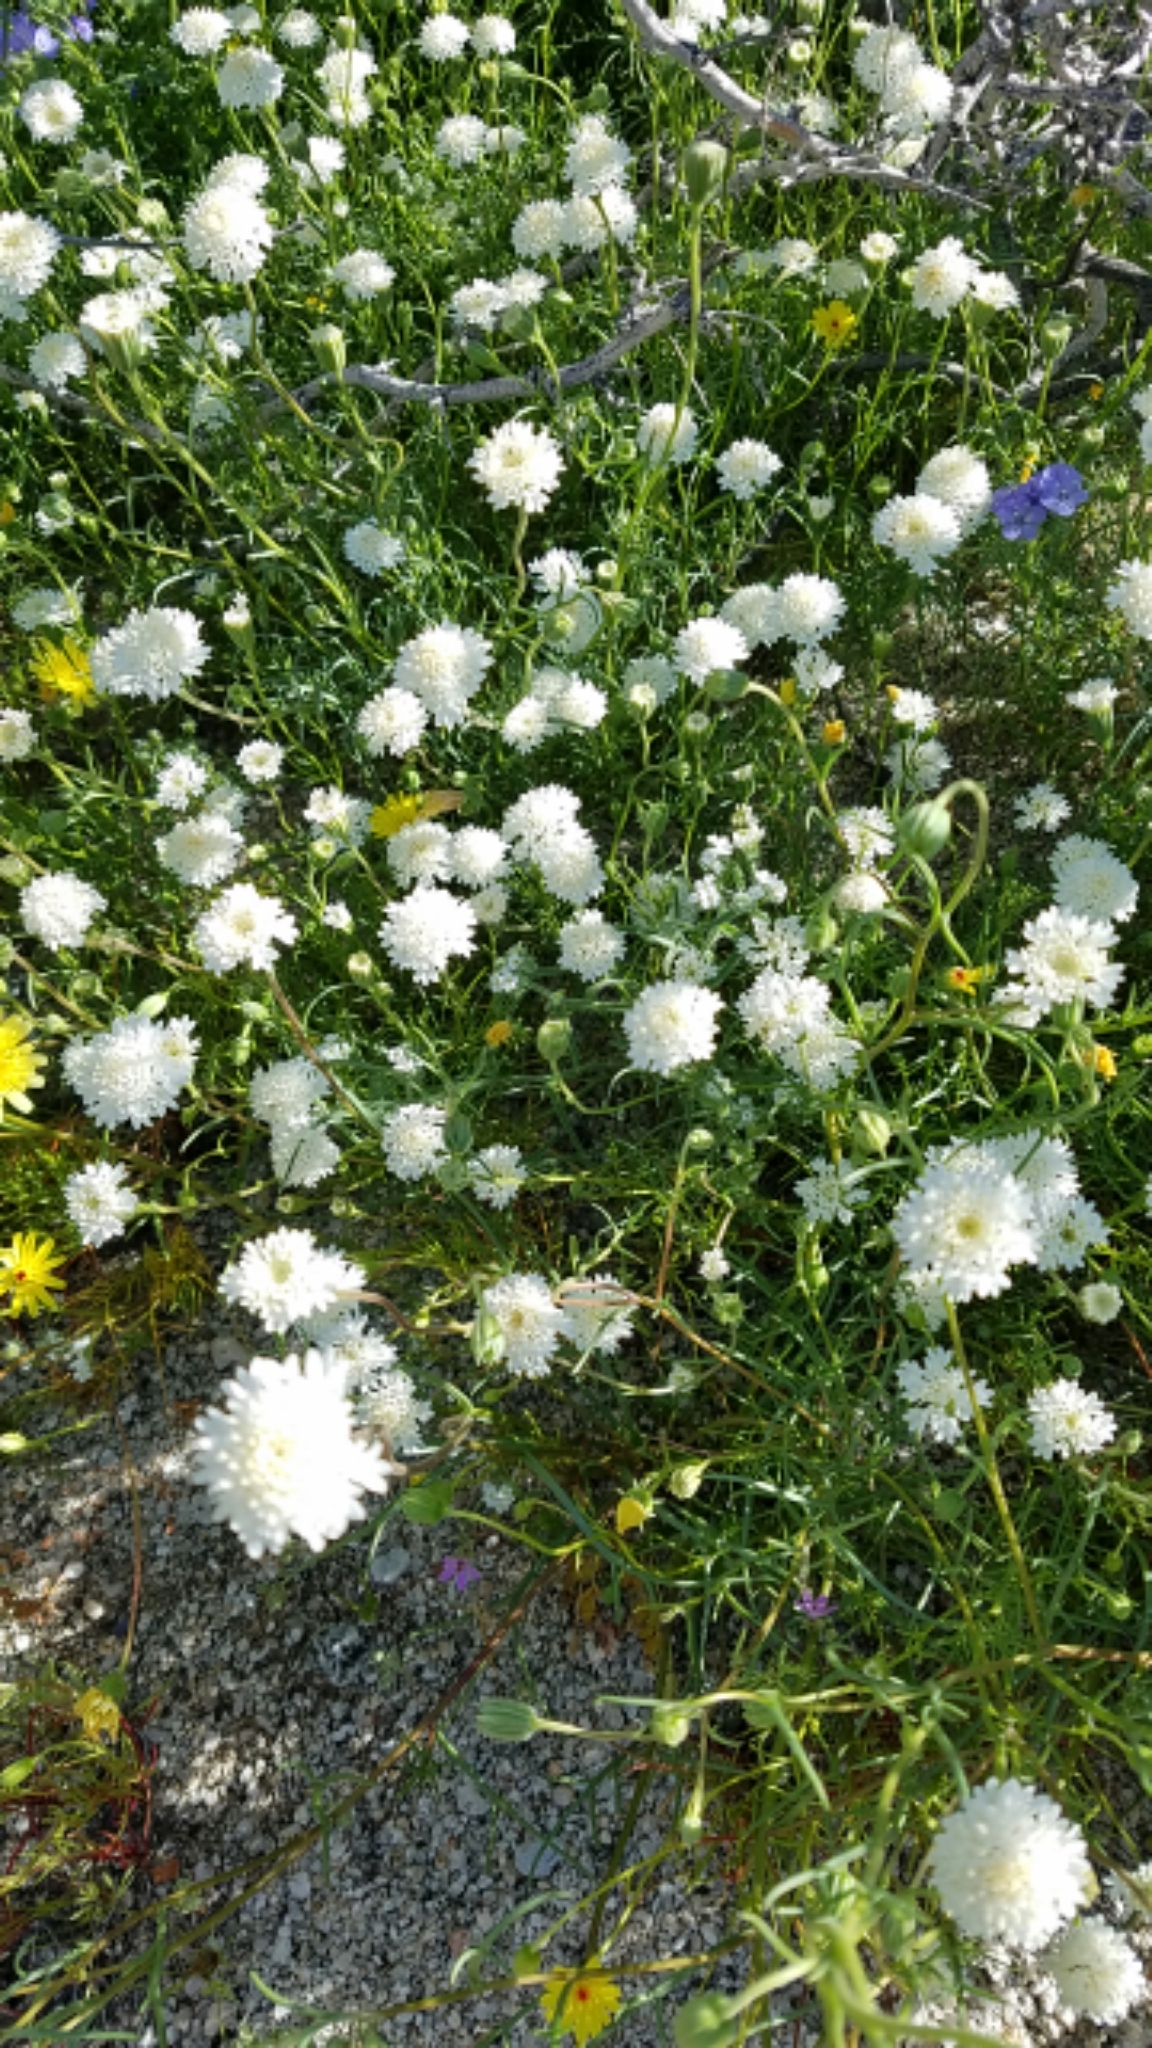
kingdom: Plantae
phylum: Tracheophyta
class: Magnoliopsida
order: Asterales
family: Asteraceae
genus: Chaenactis
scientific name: Chaenactis fremontii
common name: Fremont pincushion
